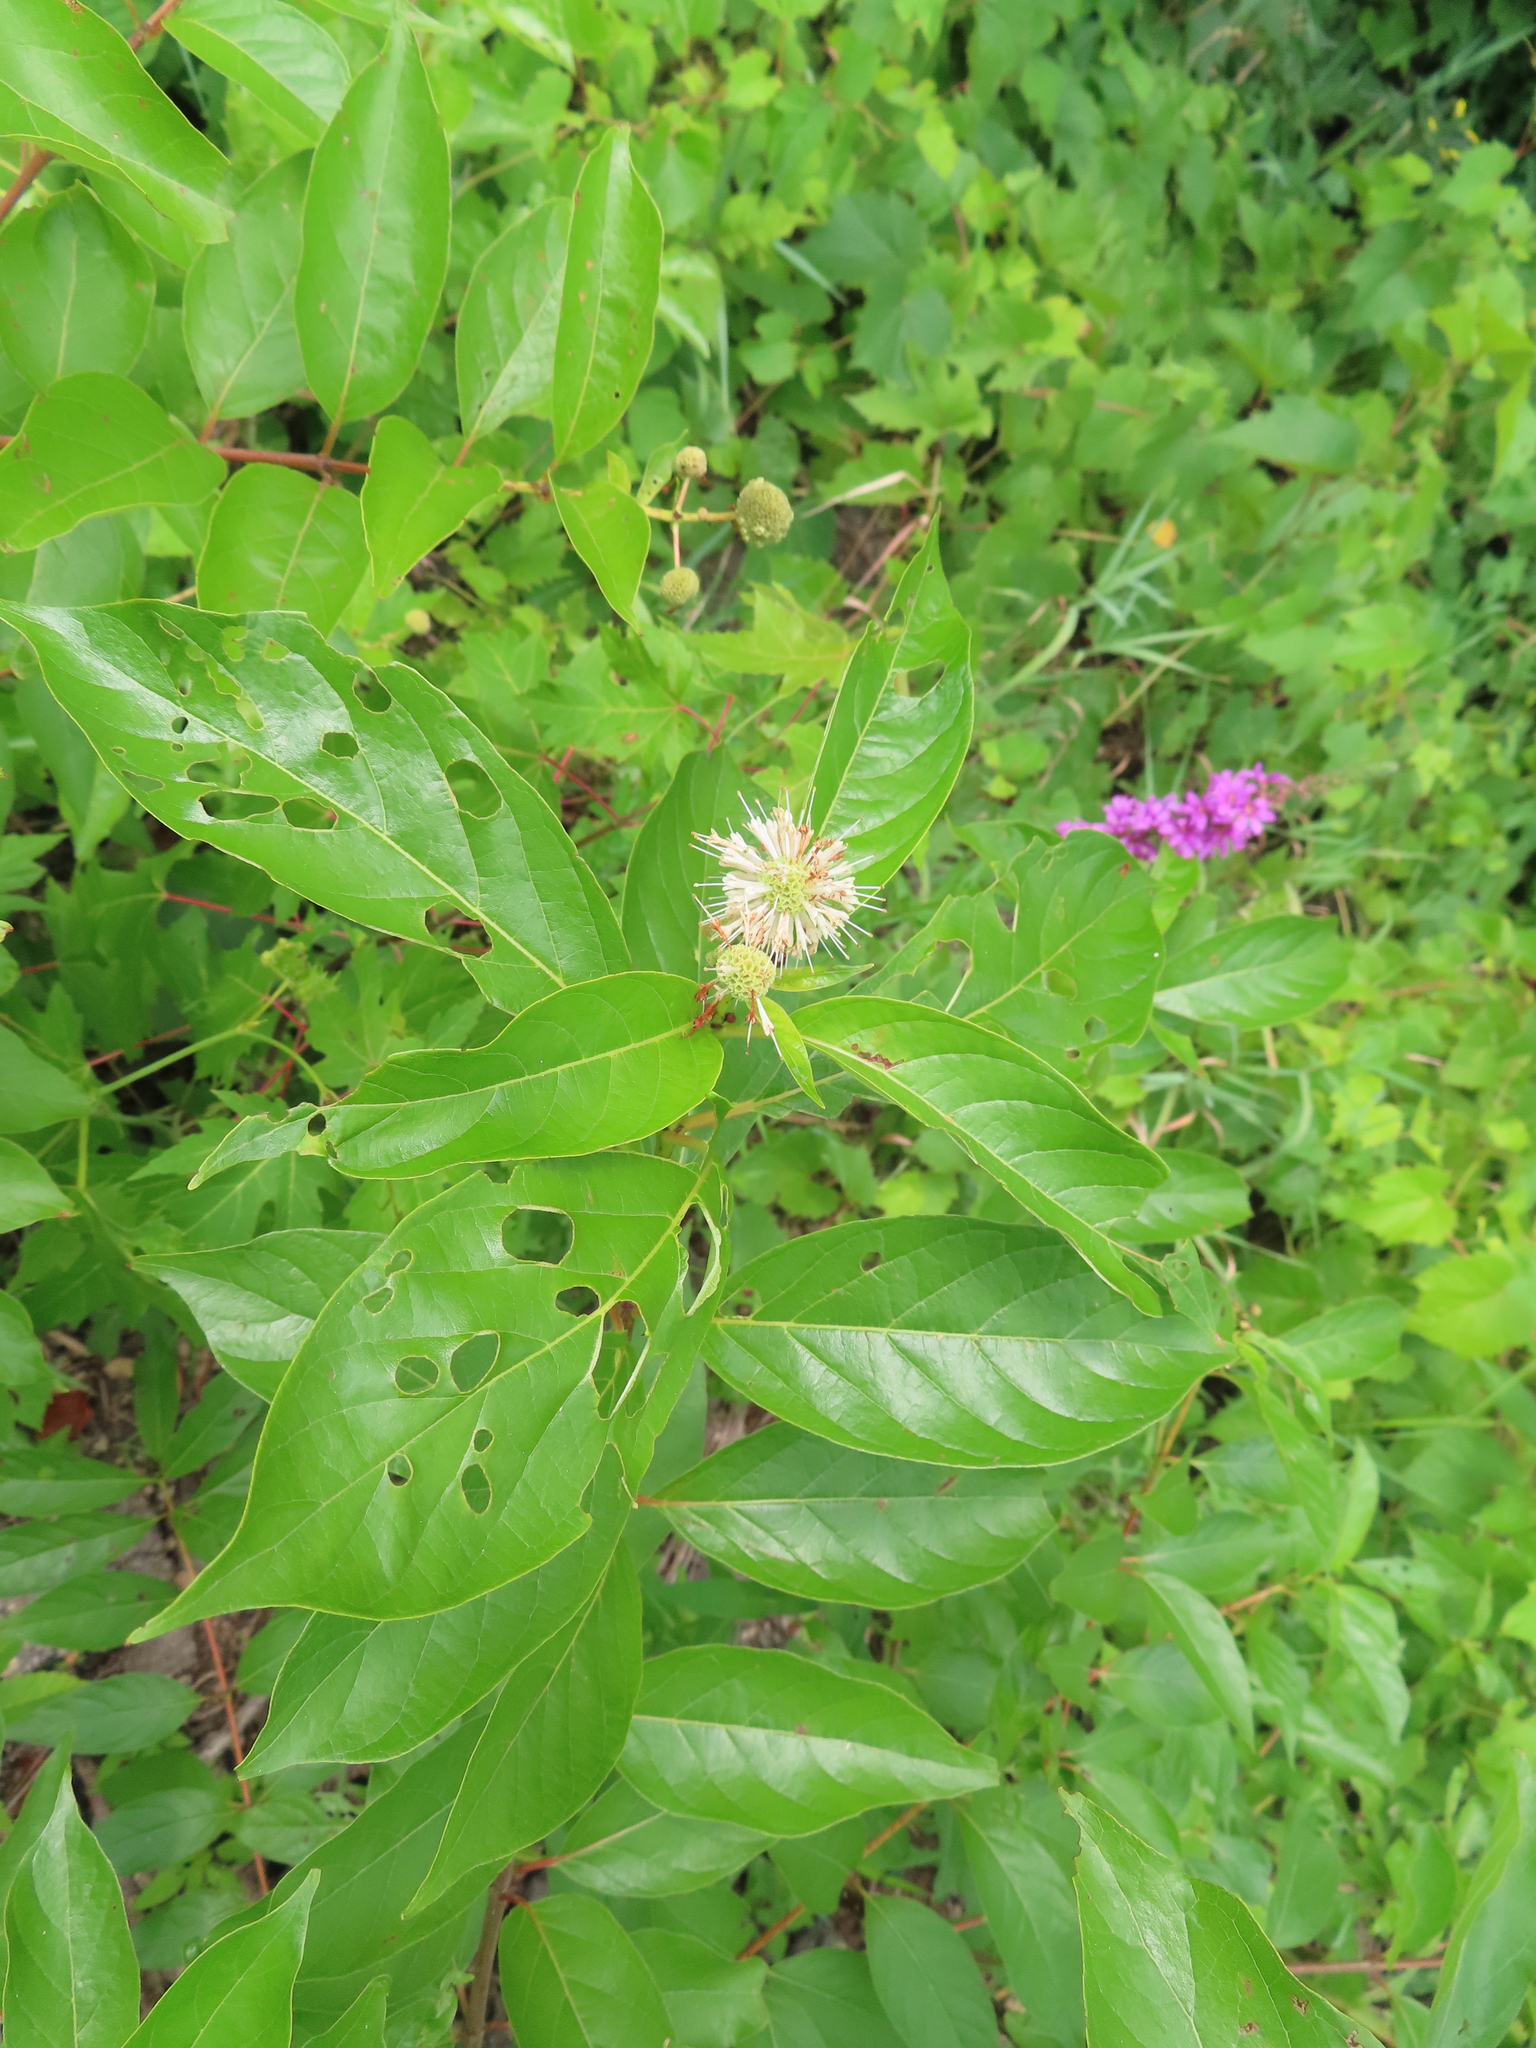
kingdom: Plantae
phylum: Tracheophyta
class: Magnoliopsida
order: Gentianales
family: Rubiaceae
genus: Cephalanthus
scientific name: Cephalanthus occidentalis
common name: Button-willow
